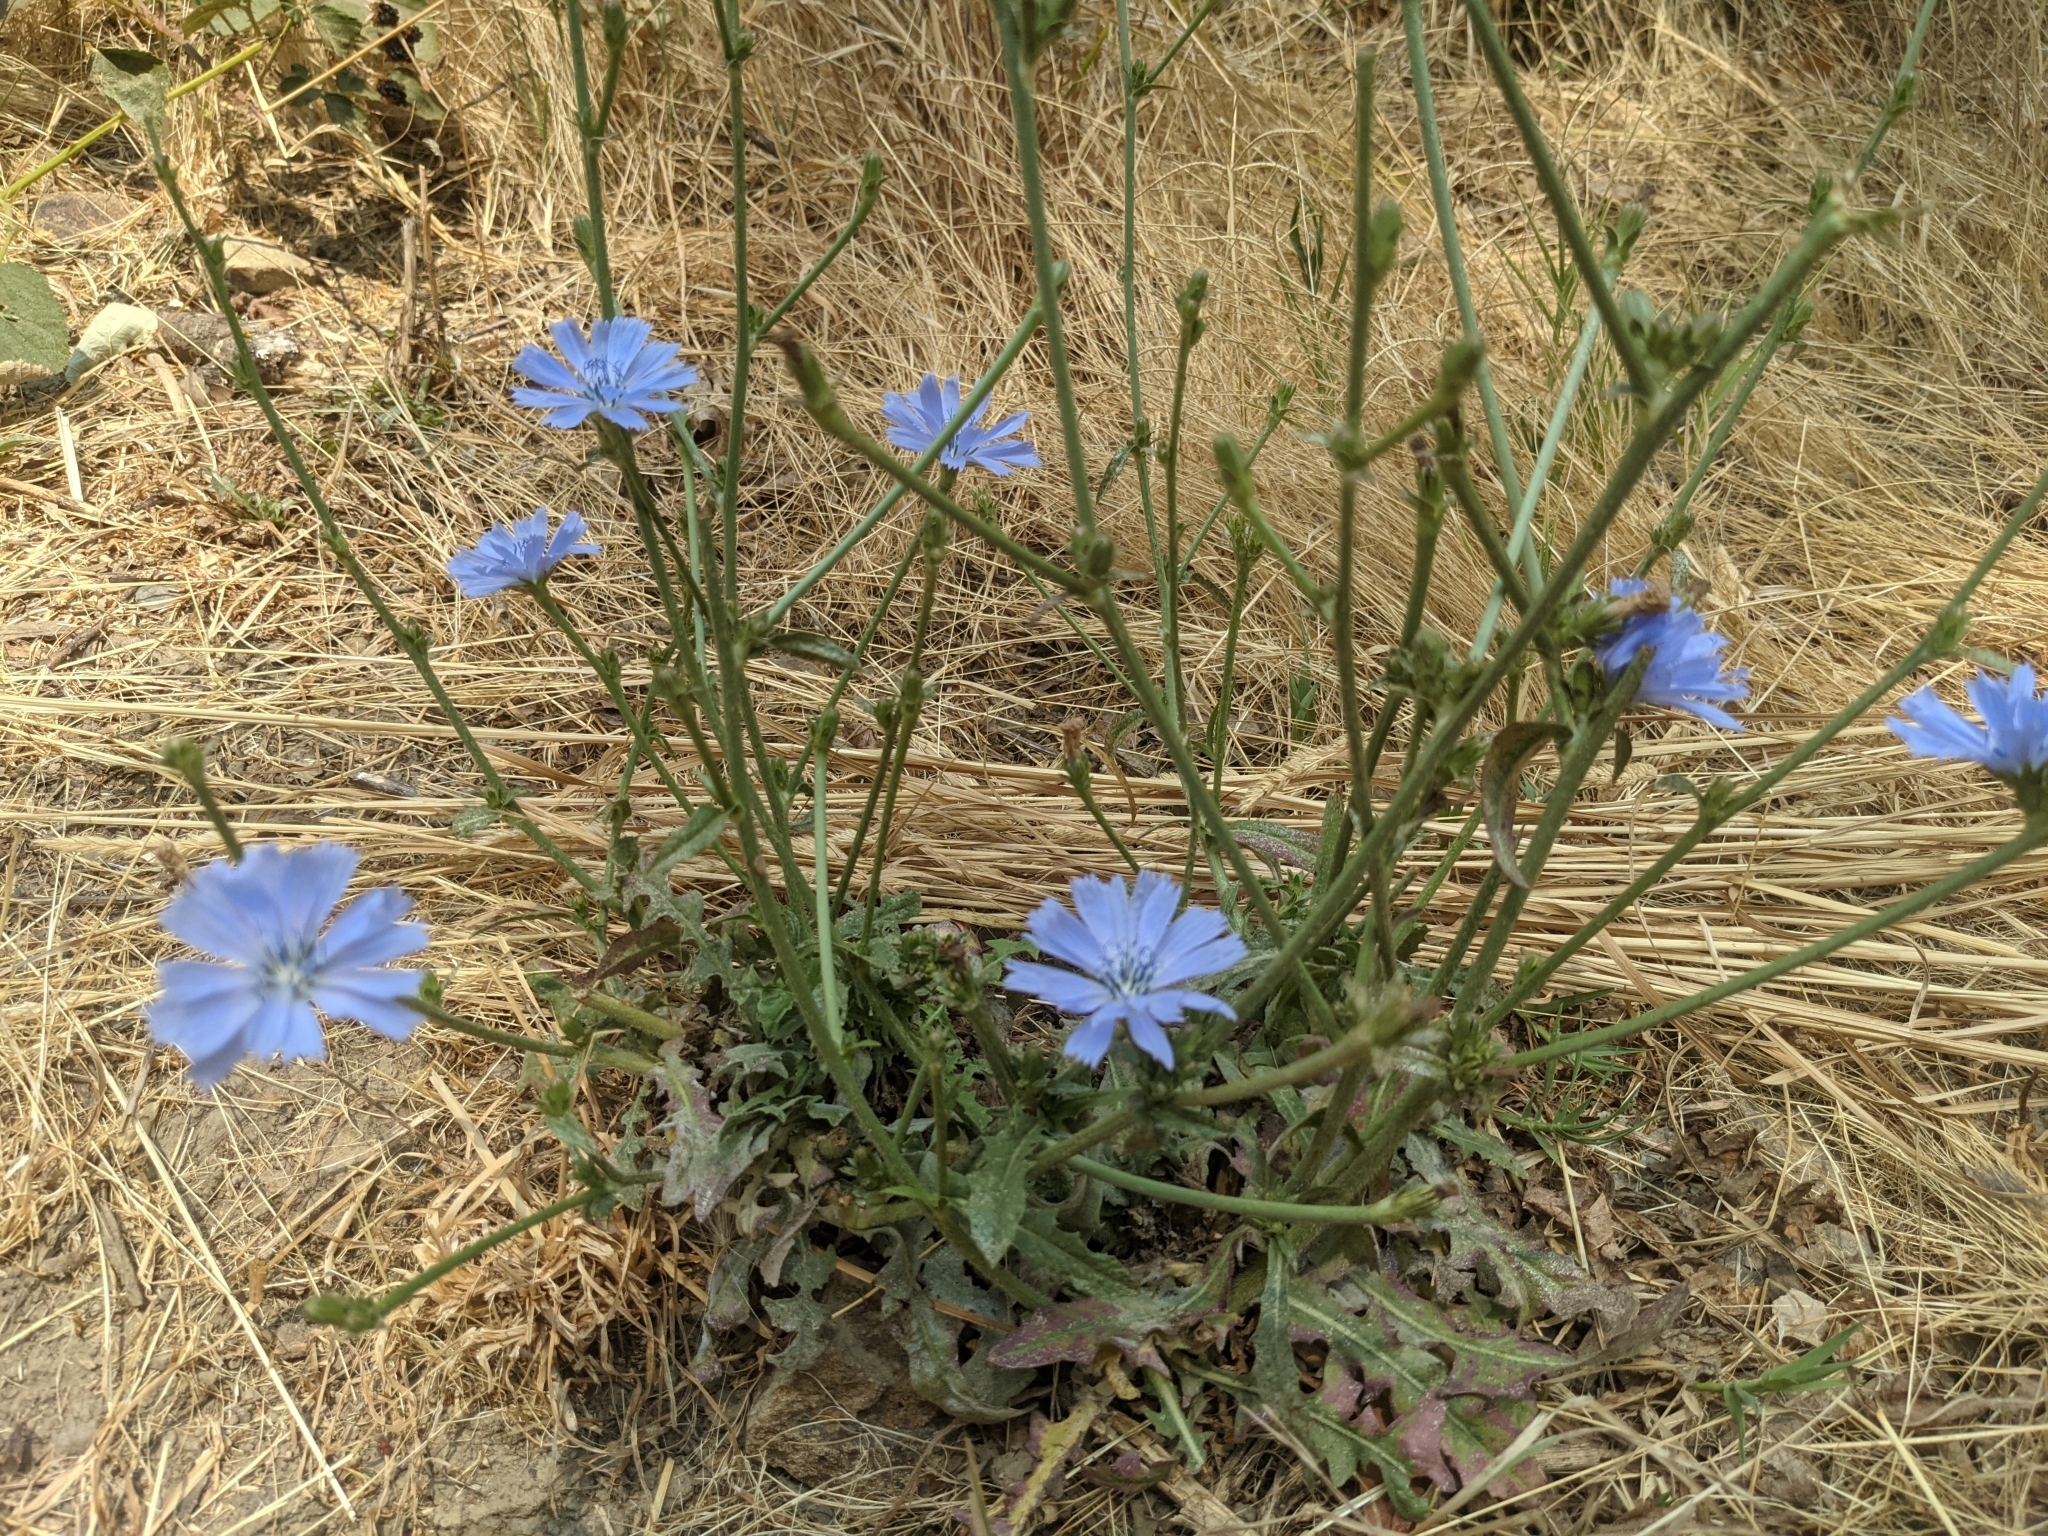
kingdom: Plantae
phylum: Tracheophyta
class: Magnoliopsida
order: Asterales
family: Asteraceae
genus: Cichorium
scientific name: Cichorium intybus
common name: Chicory
